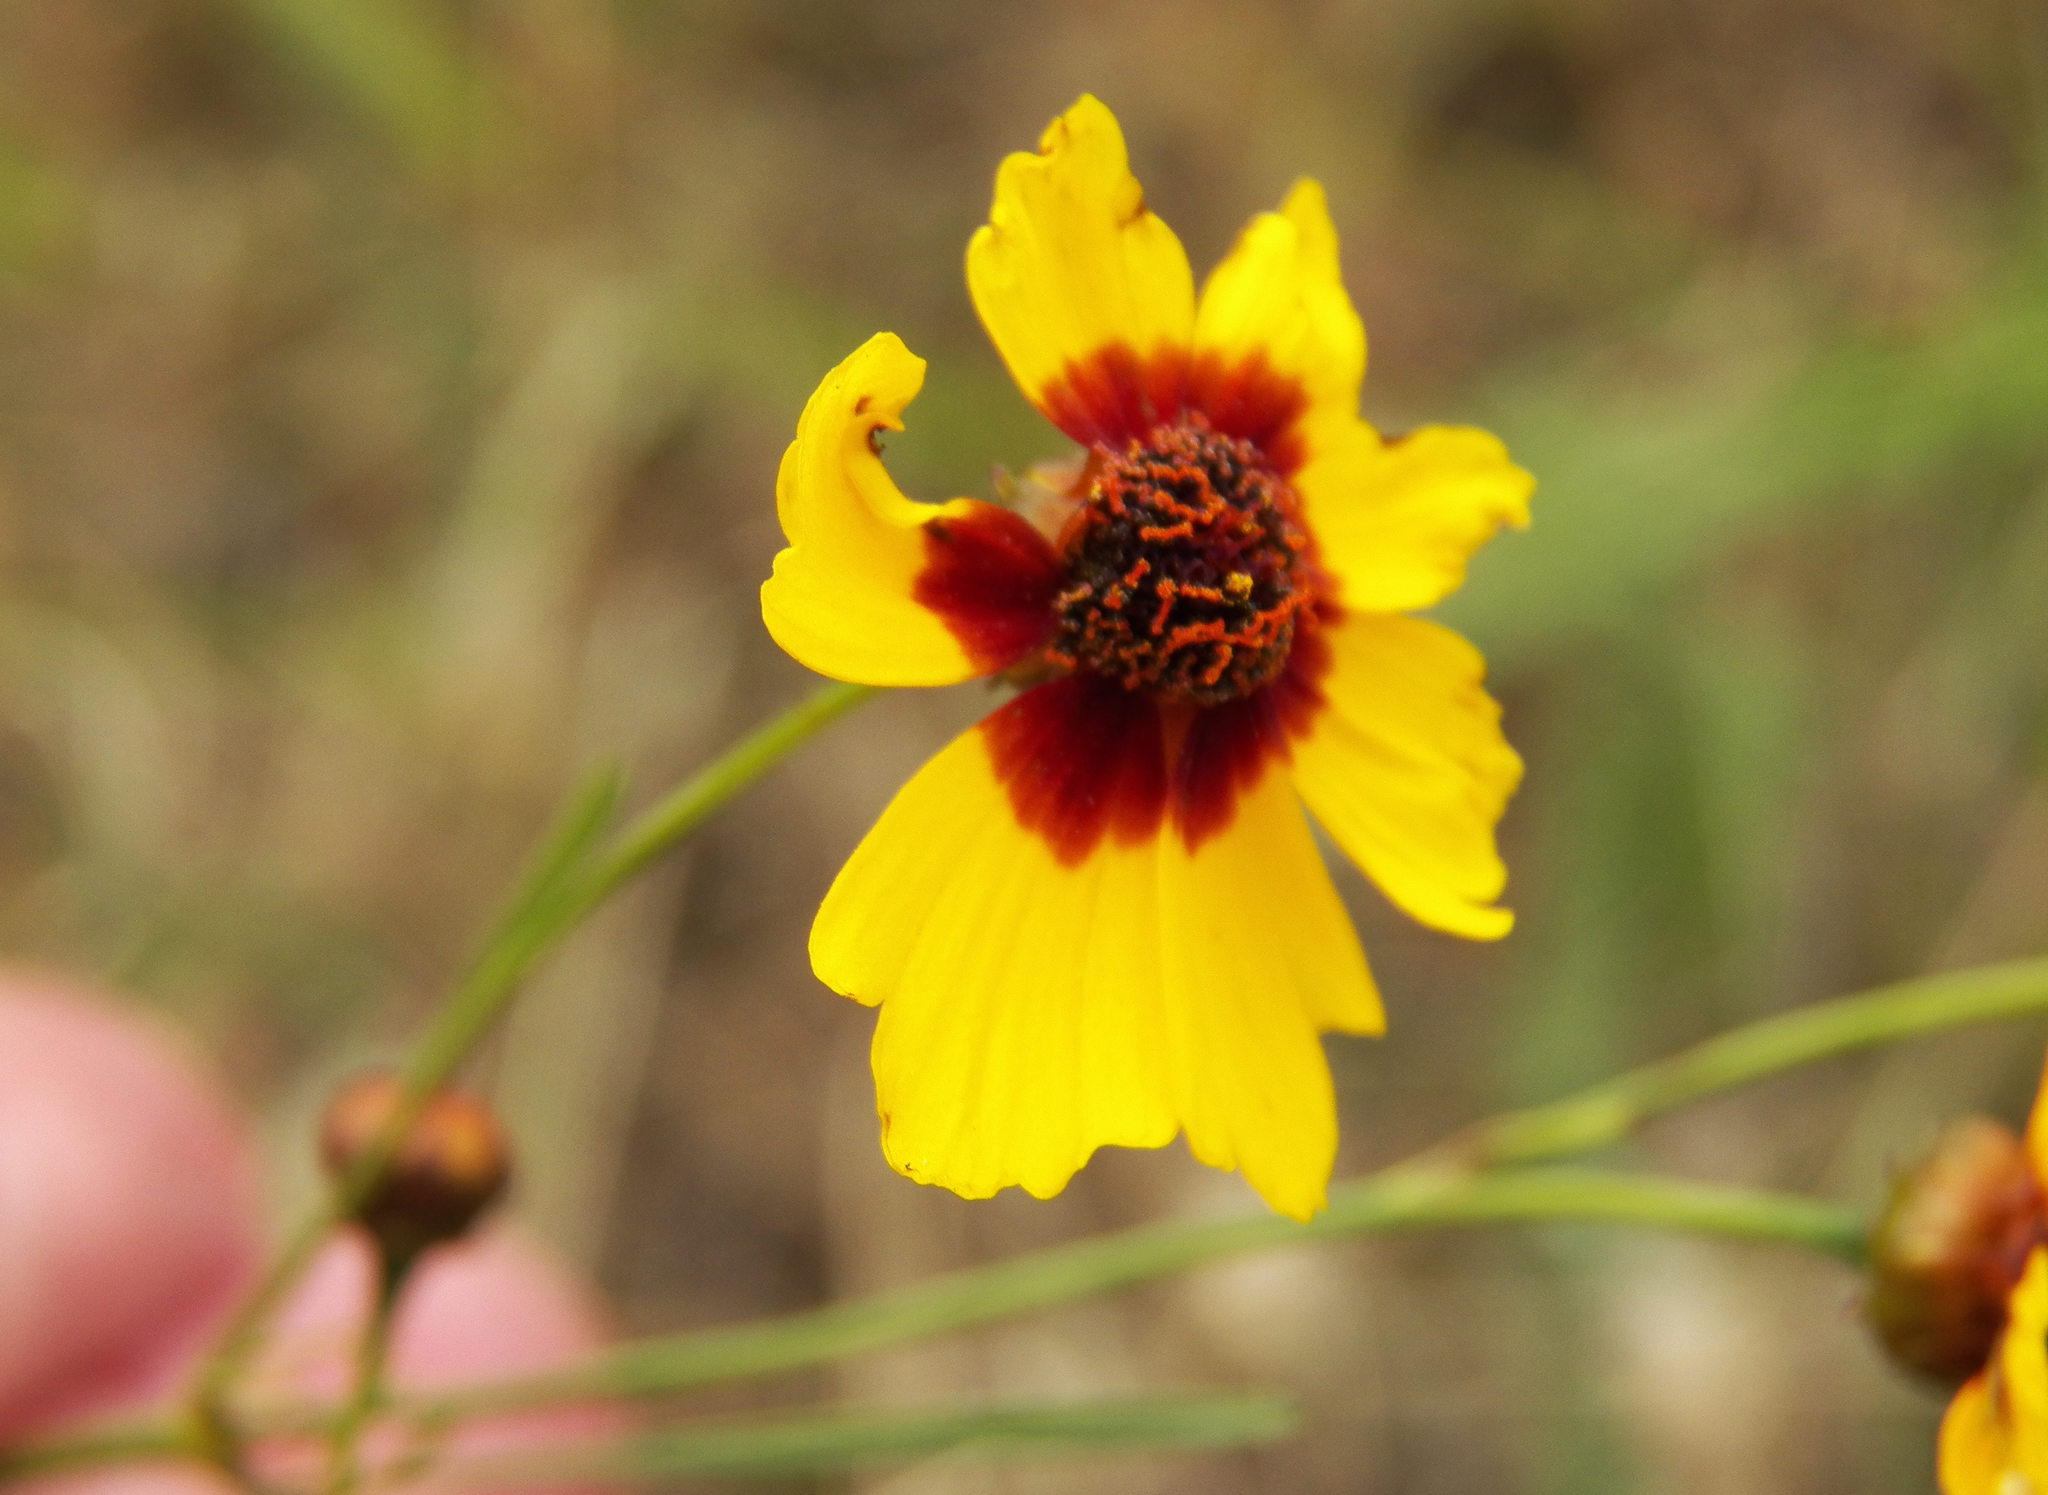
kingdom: Plantae
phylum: Tracheophyta
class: Magnoliopsida
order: Asterales
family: Asteraceae
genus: Coreopsis
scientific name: Coreopsis tinctoria
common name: Garden tickseed
